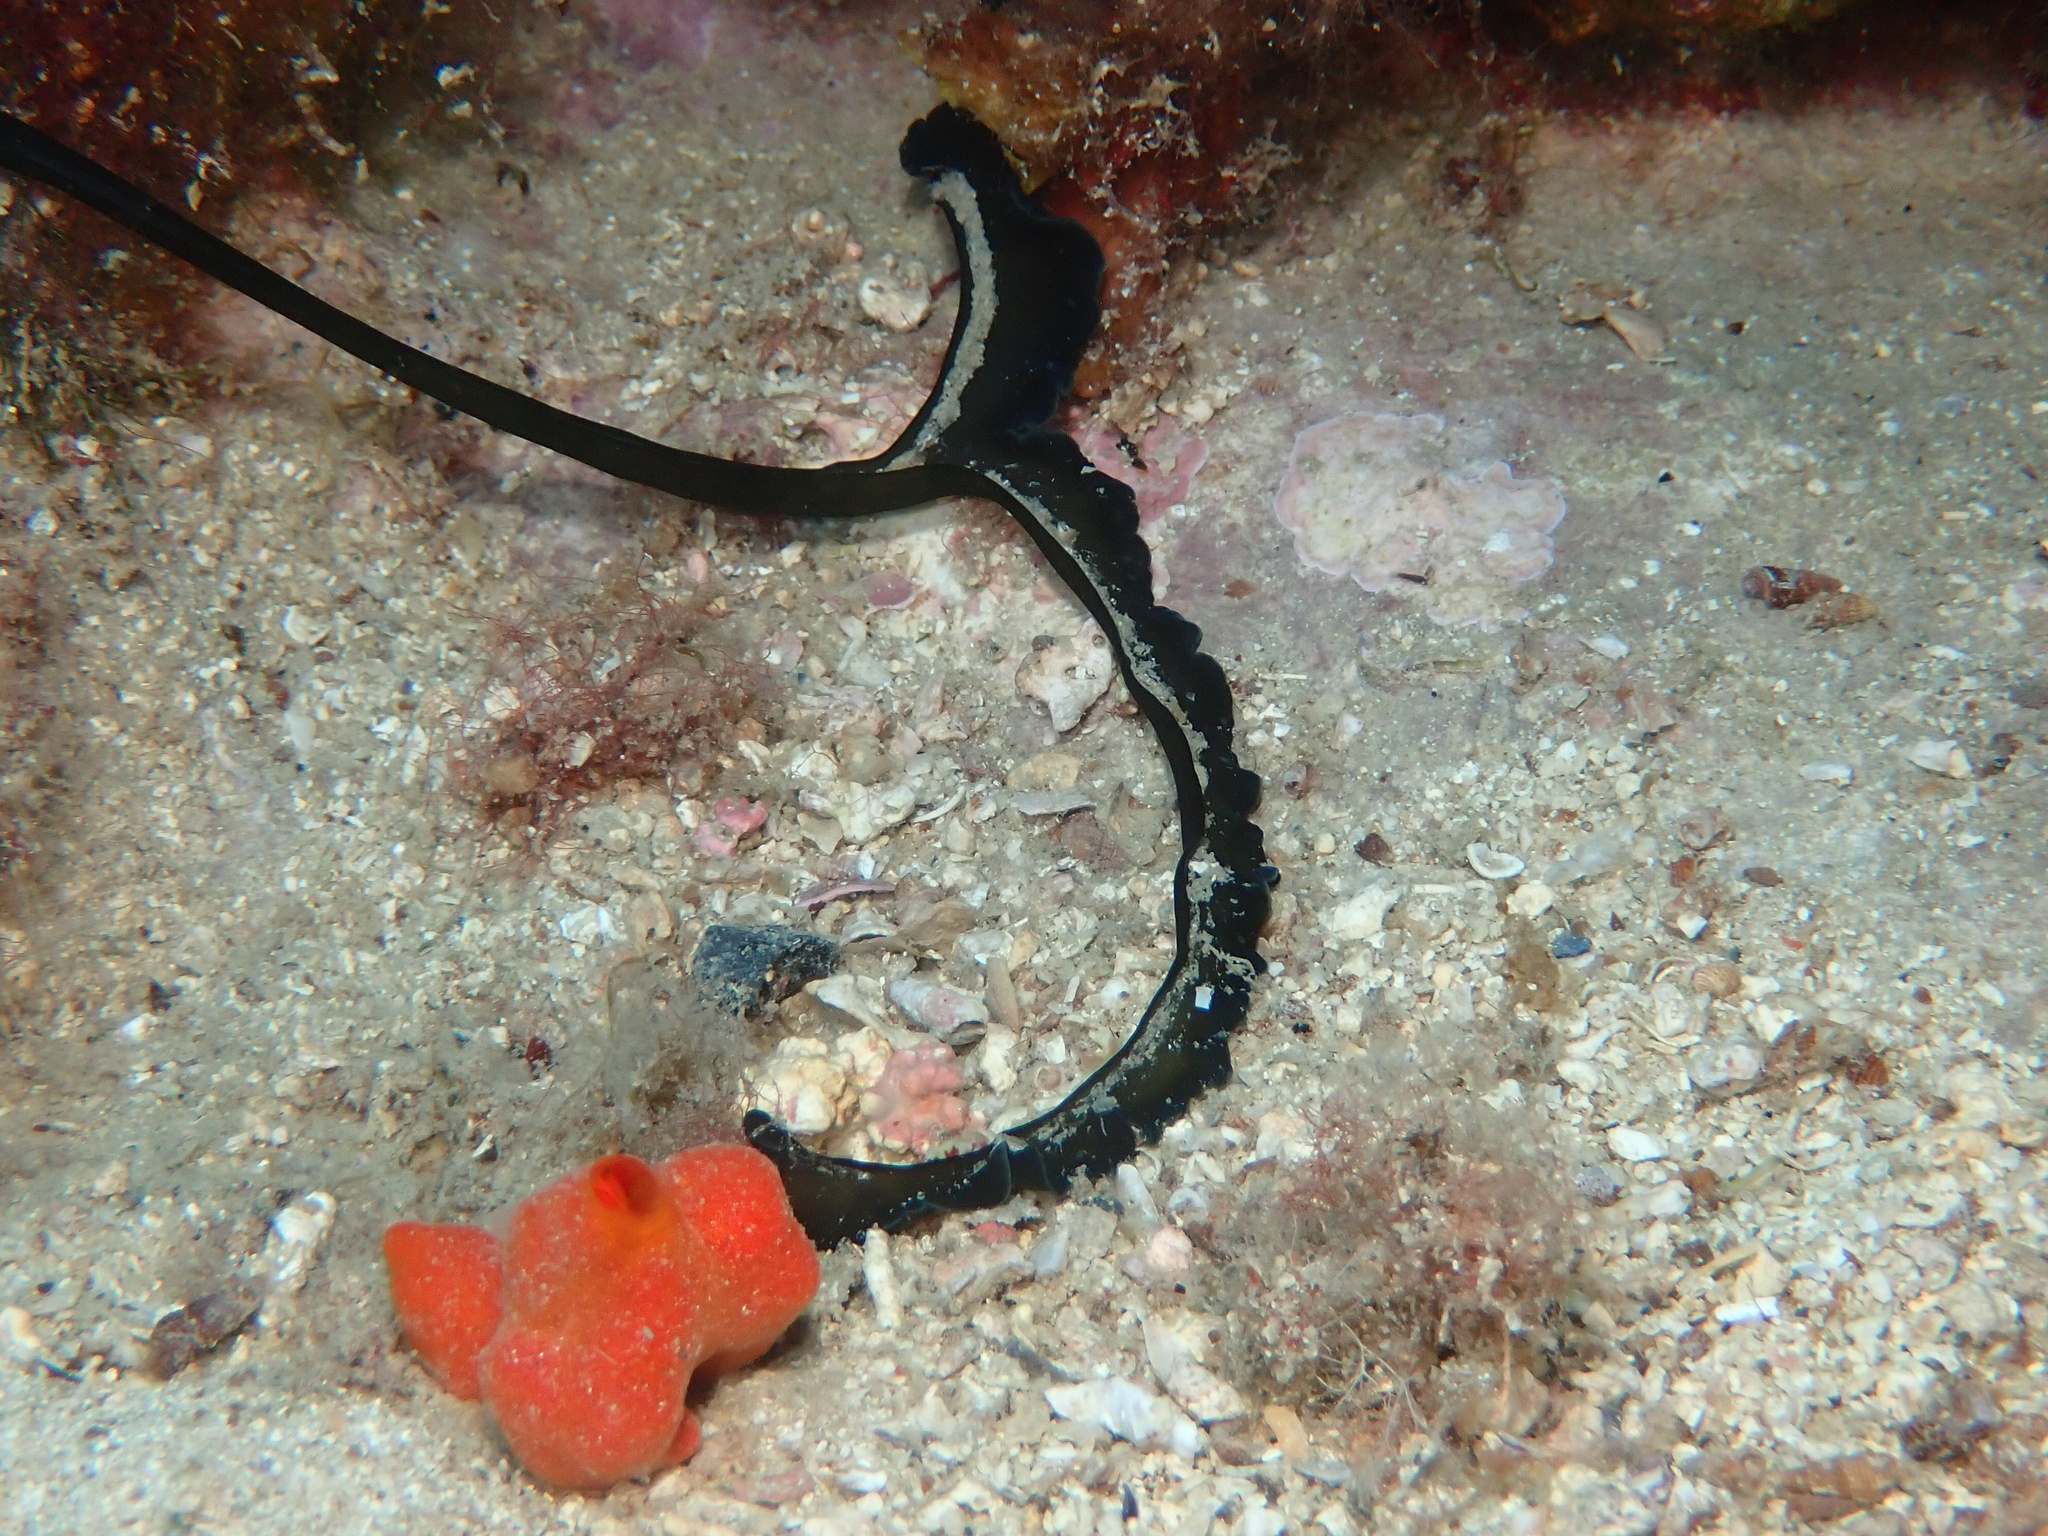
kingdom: Animalia
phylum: Annelida
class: Polychaeta
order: Echiuroidea
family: Bonelliidae
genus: Bonellia
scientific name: Bonellia viridis
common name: Green spoon worm
